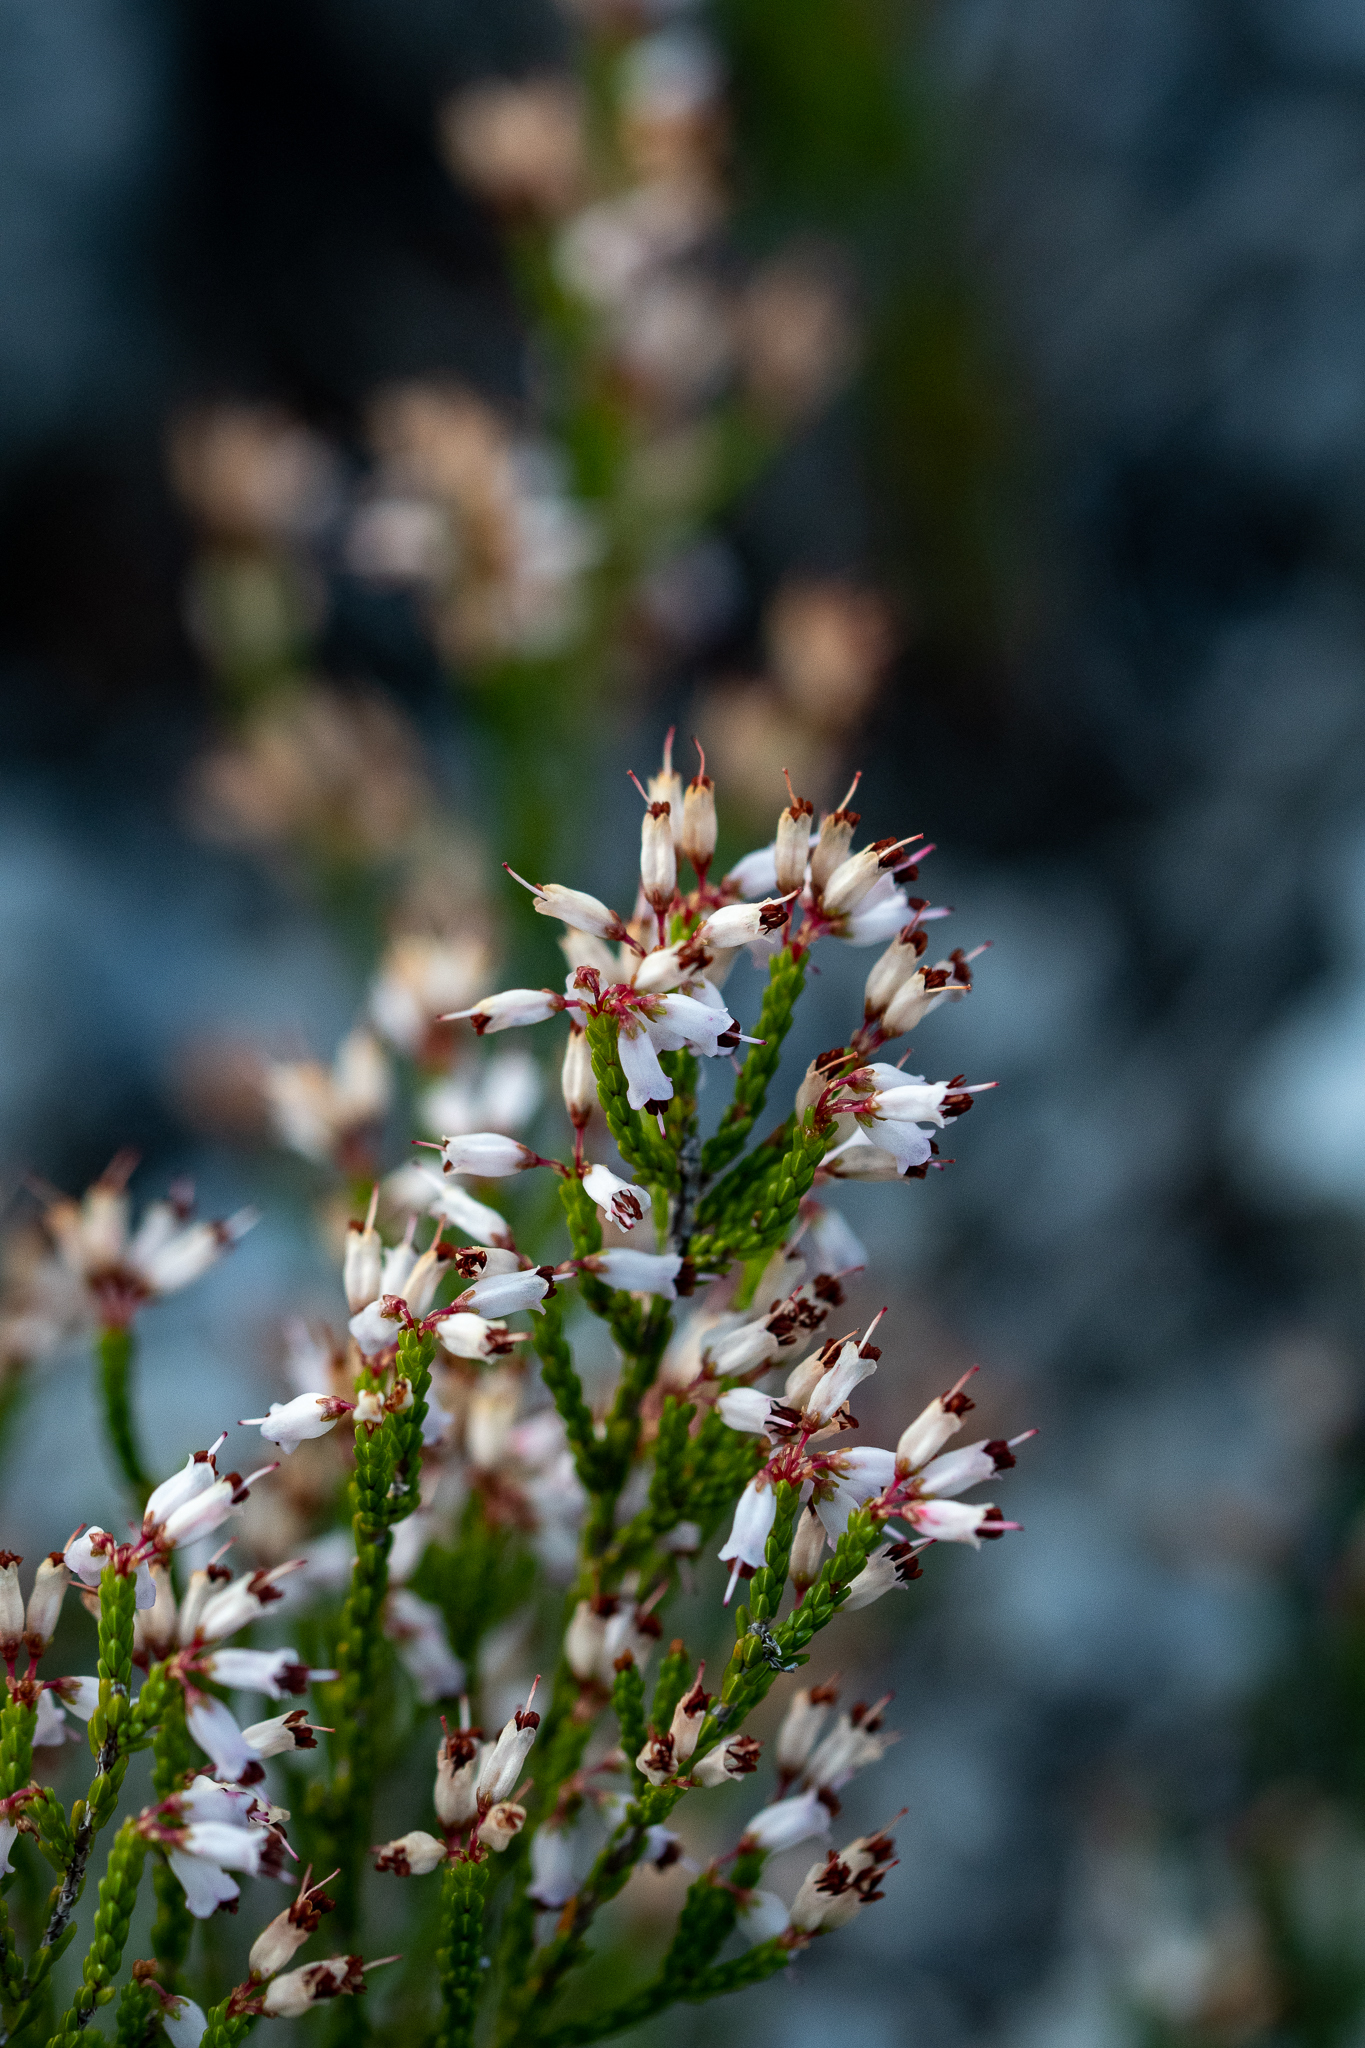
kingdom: Plantae
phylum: Tracheophyta
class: Magnoliopsida
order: Ericales
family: Ericaceae
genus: Erica
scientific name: Erica equisetifolia
